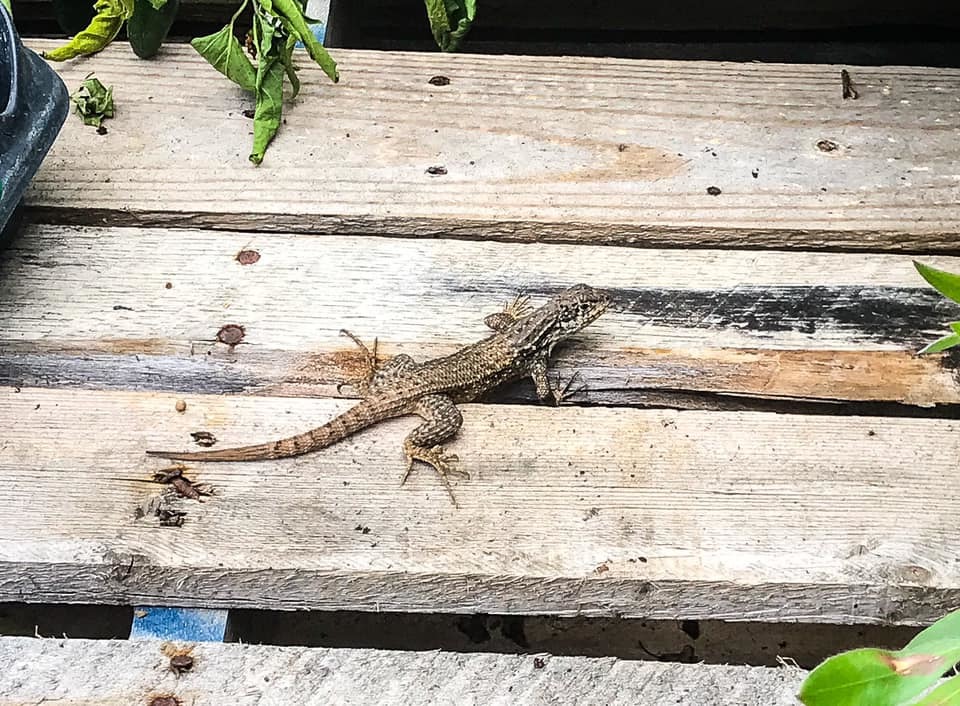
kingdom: Animalia
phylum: Chordata
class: Squamata
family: Leiocephalidae
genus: Leiocephalus
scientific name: Leiocephalus carinatus
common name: Northern curly-tailed lizard
